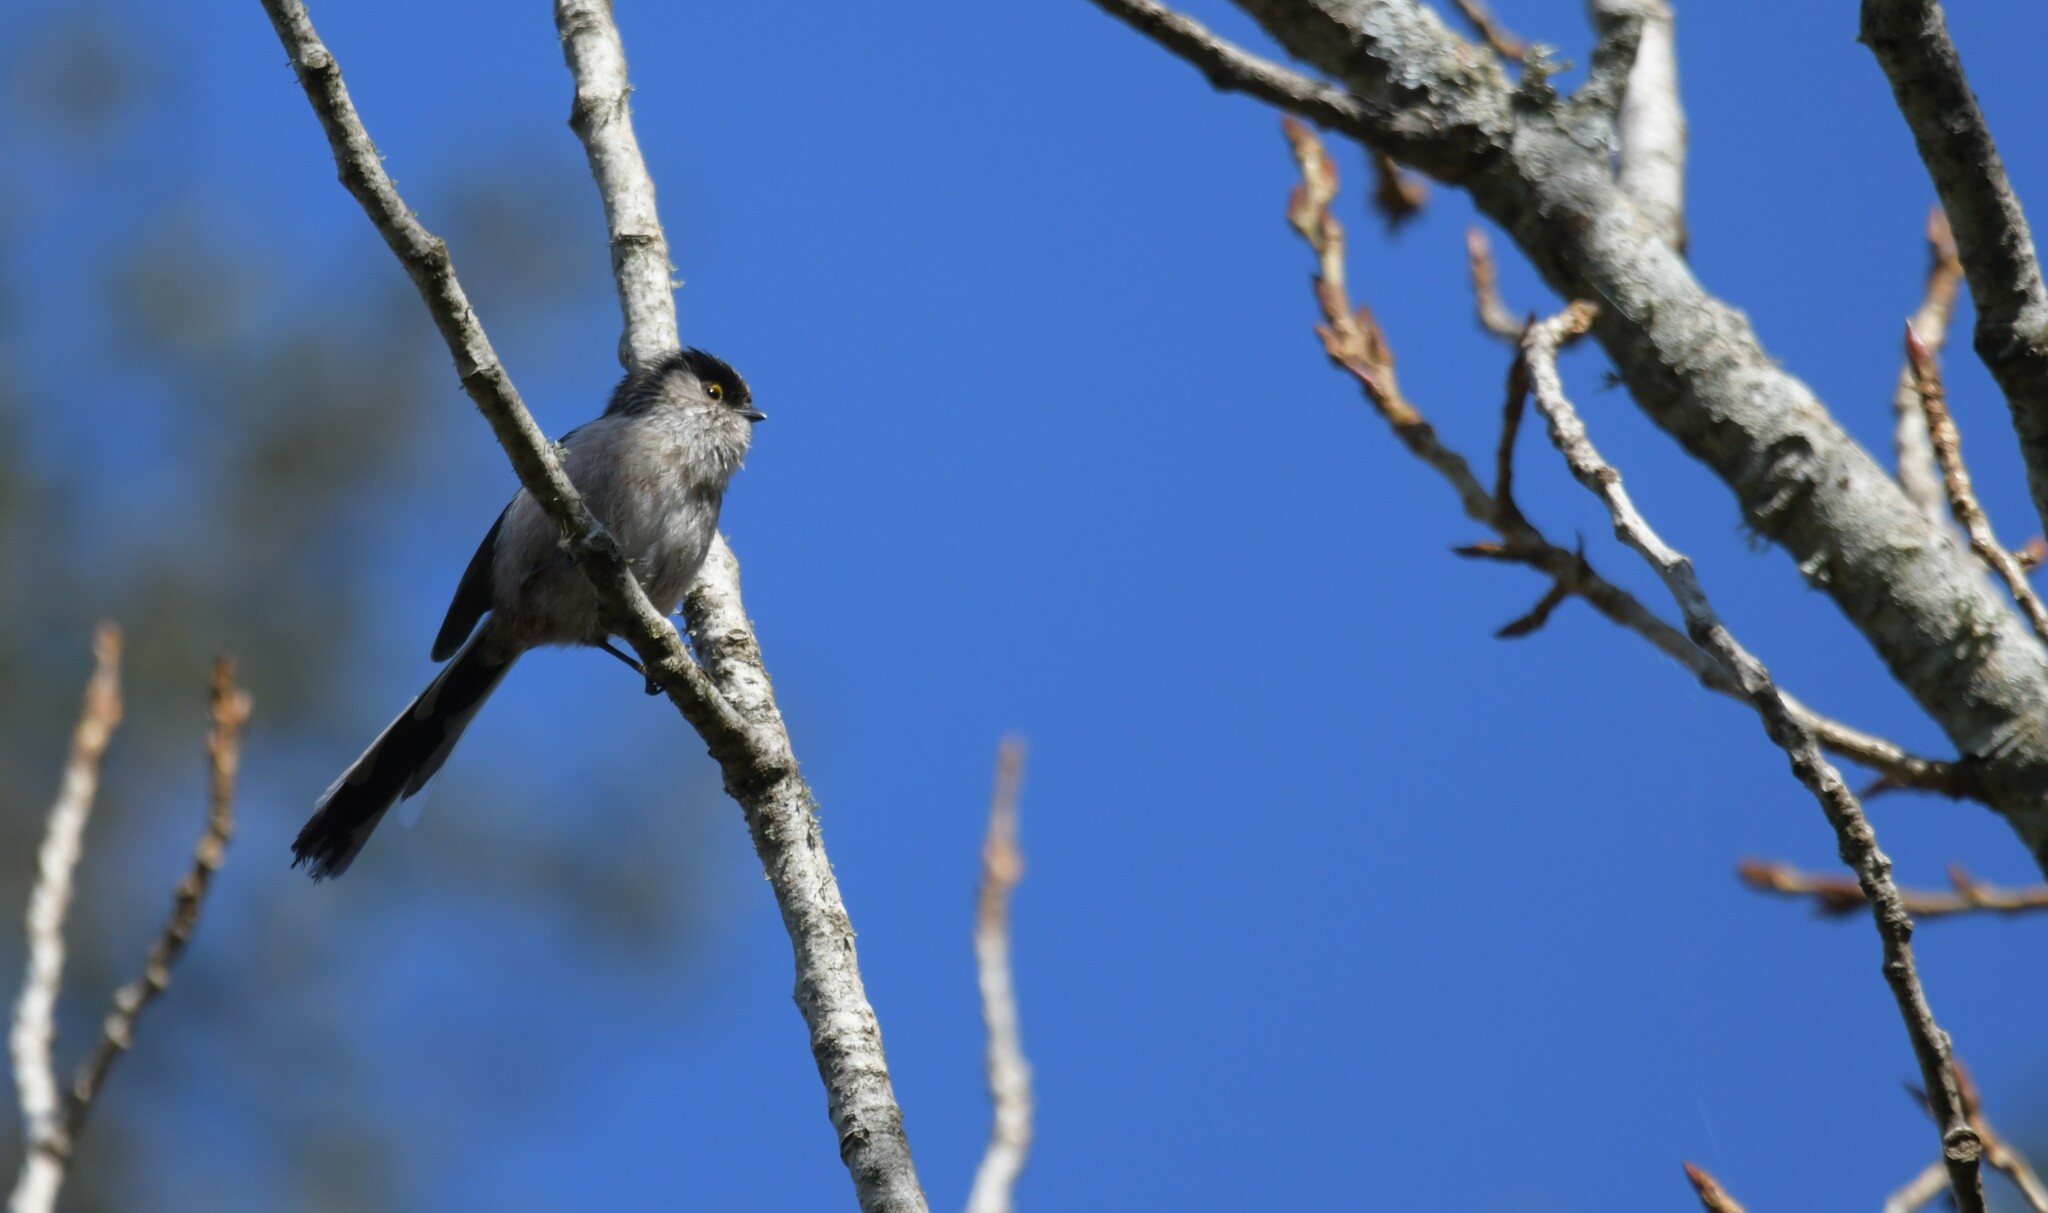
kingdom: Animalia
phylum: Chordata
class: Aves
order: Passeriformes
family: Aegithalidae
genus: Aegithalos
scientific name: Aegithalos caudatus
